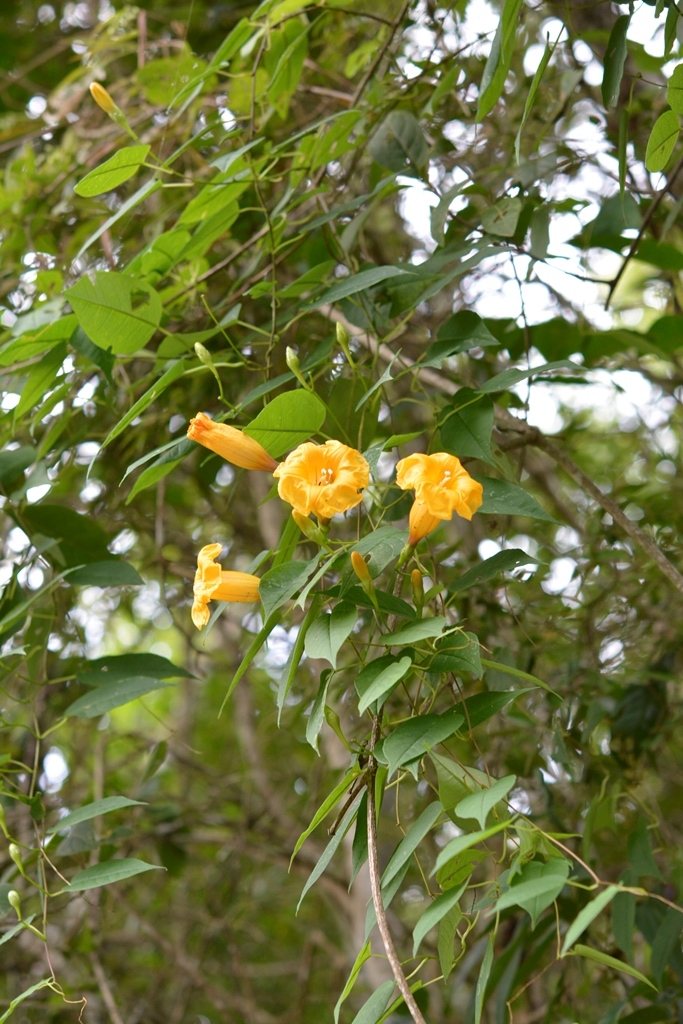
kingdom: Plantae
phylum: Tracheophyta
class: Magnoliopsida
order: Solanales
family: Convolvulaceae
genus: Ipomoea
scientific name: Ipomoea aurantiaca
